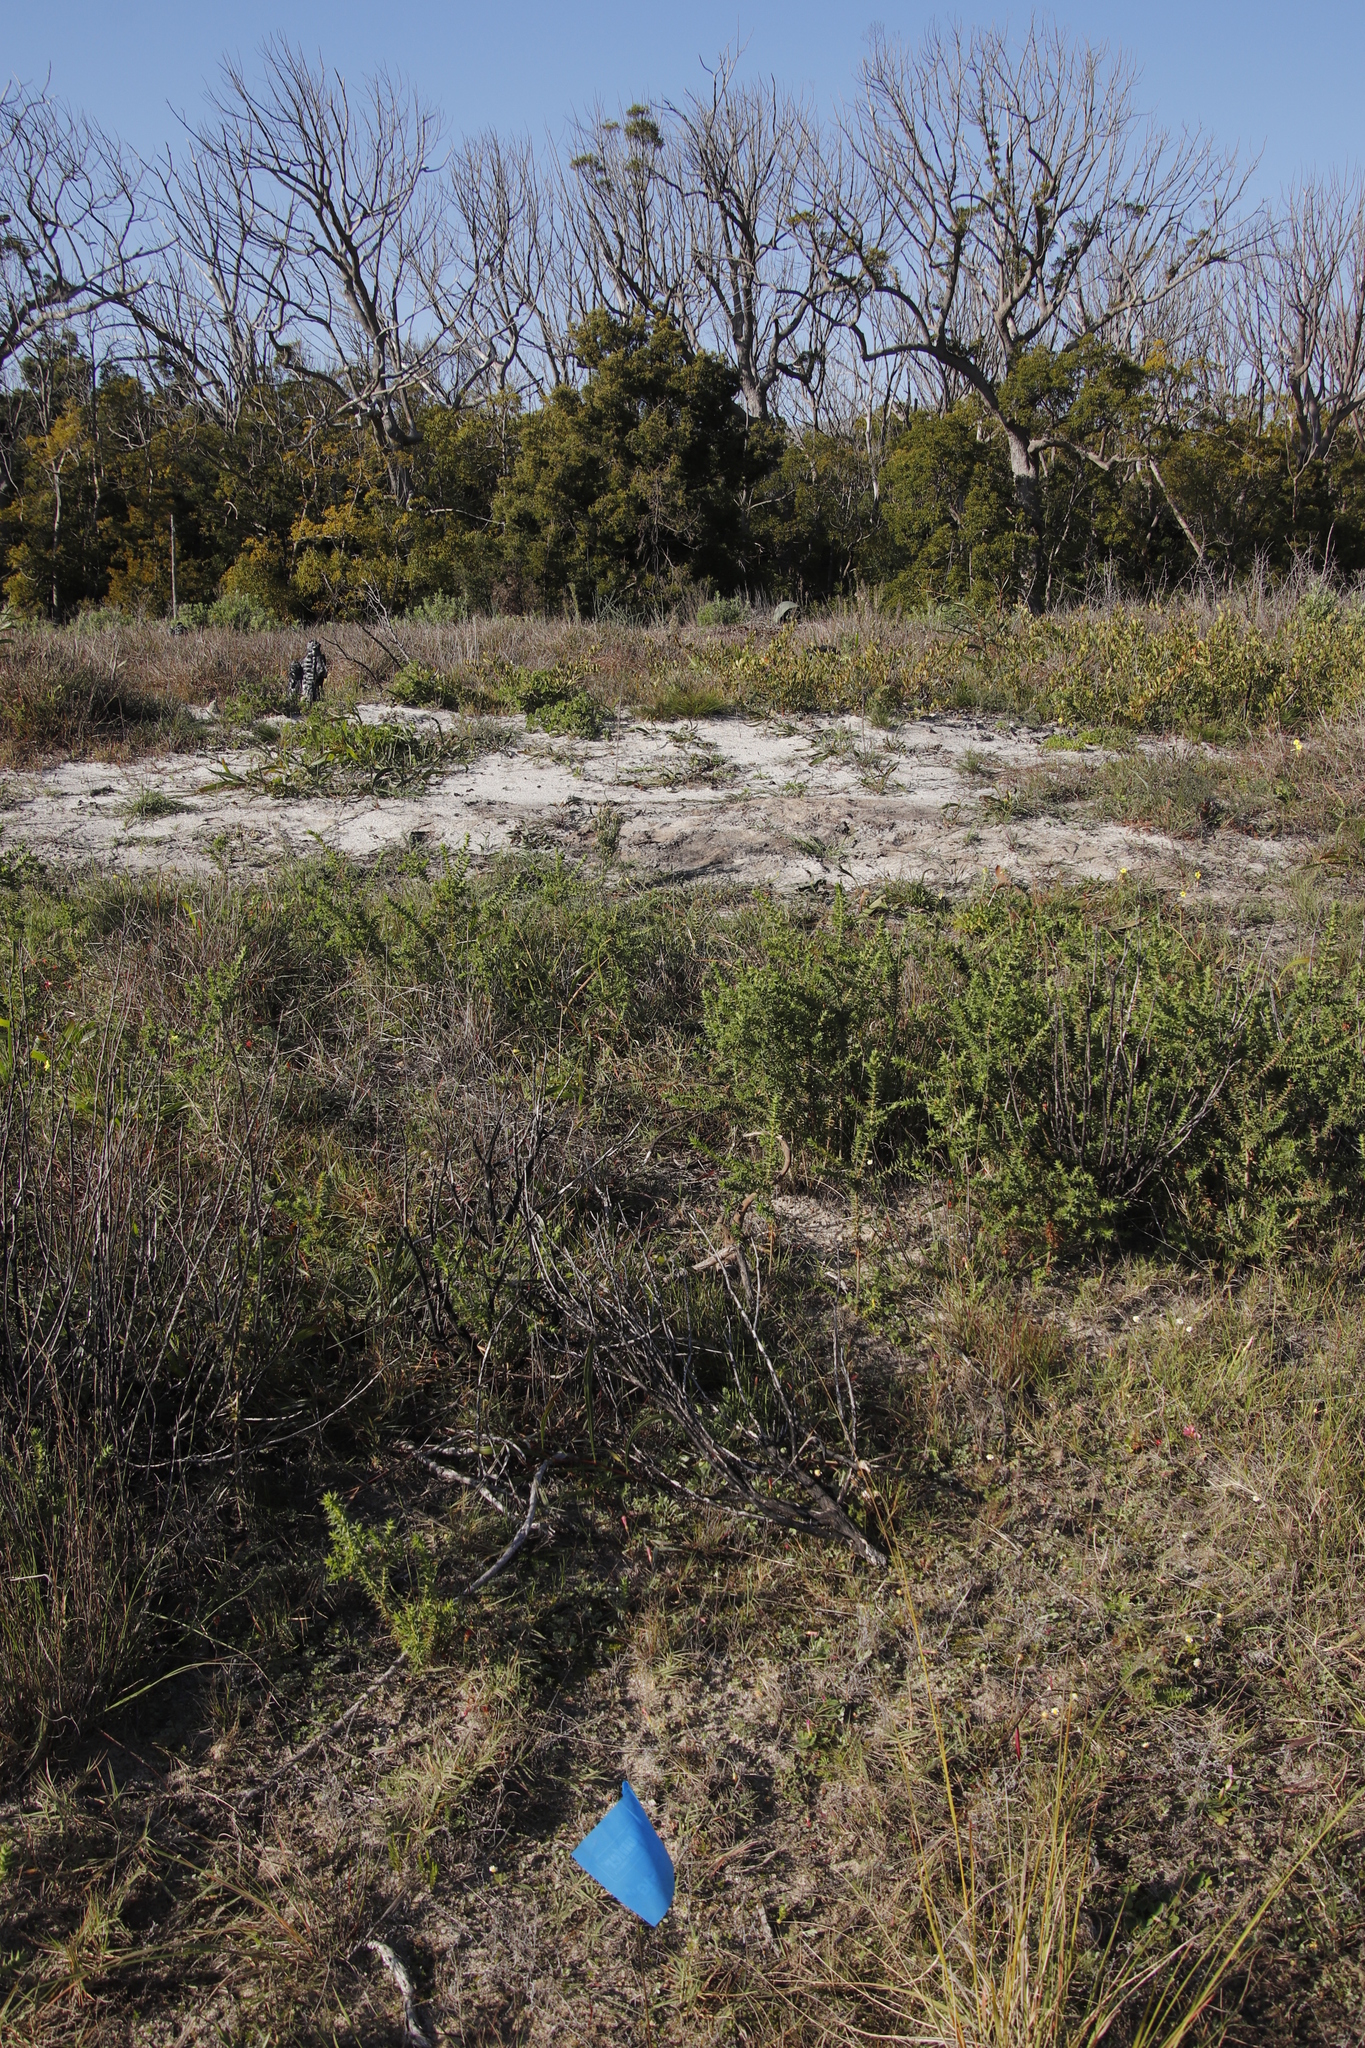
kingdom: Plantae
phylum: Tracheophyta
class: Magnoliopsida
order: Fabales
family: Fabaceae
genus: Aspalathus
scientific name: Aspalathus cordata
